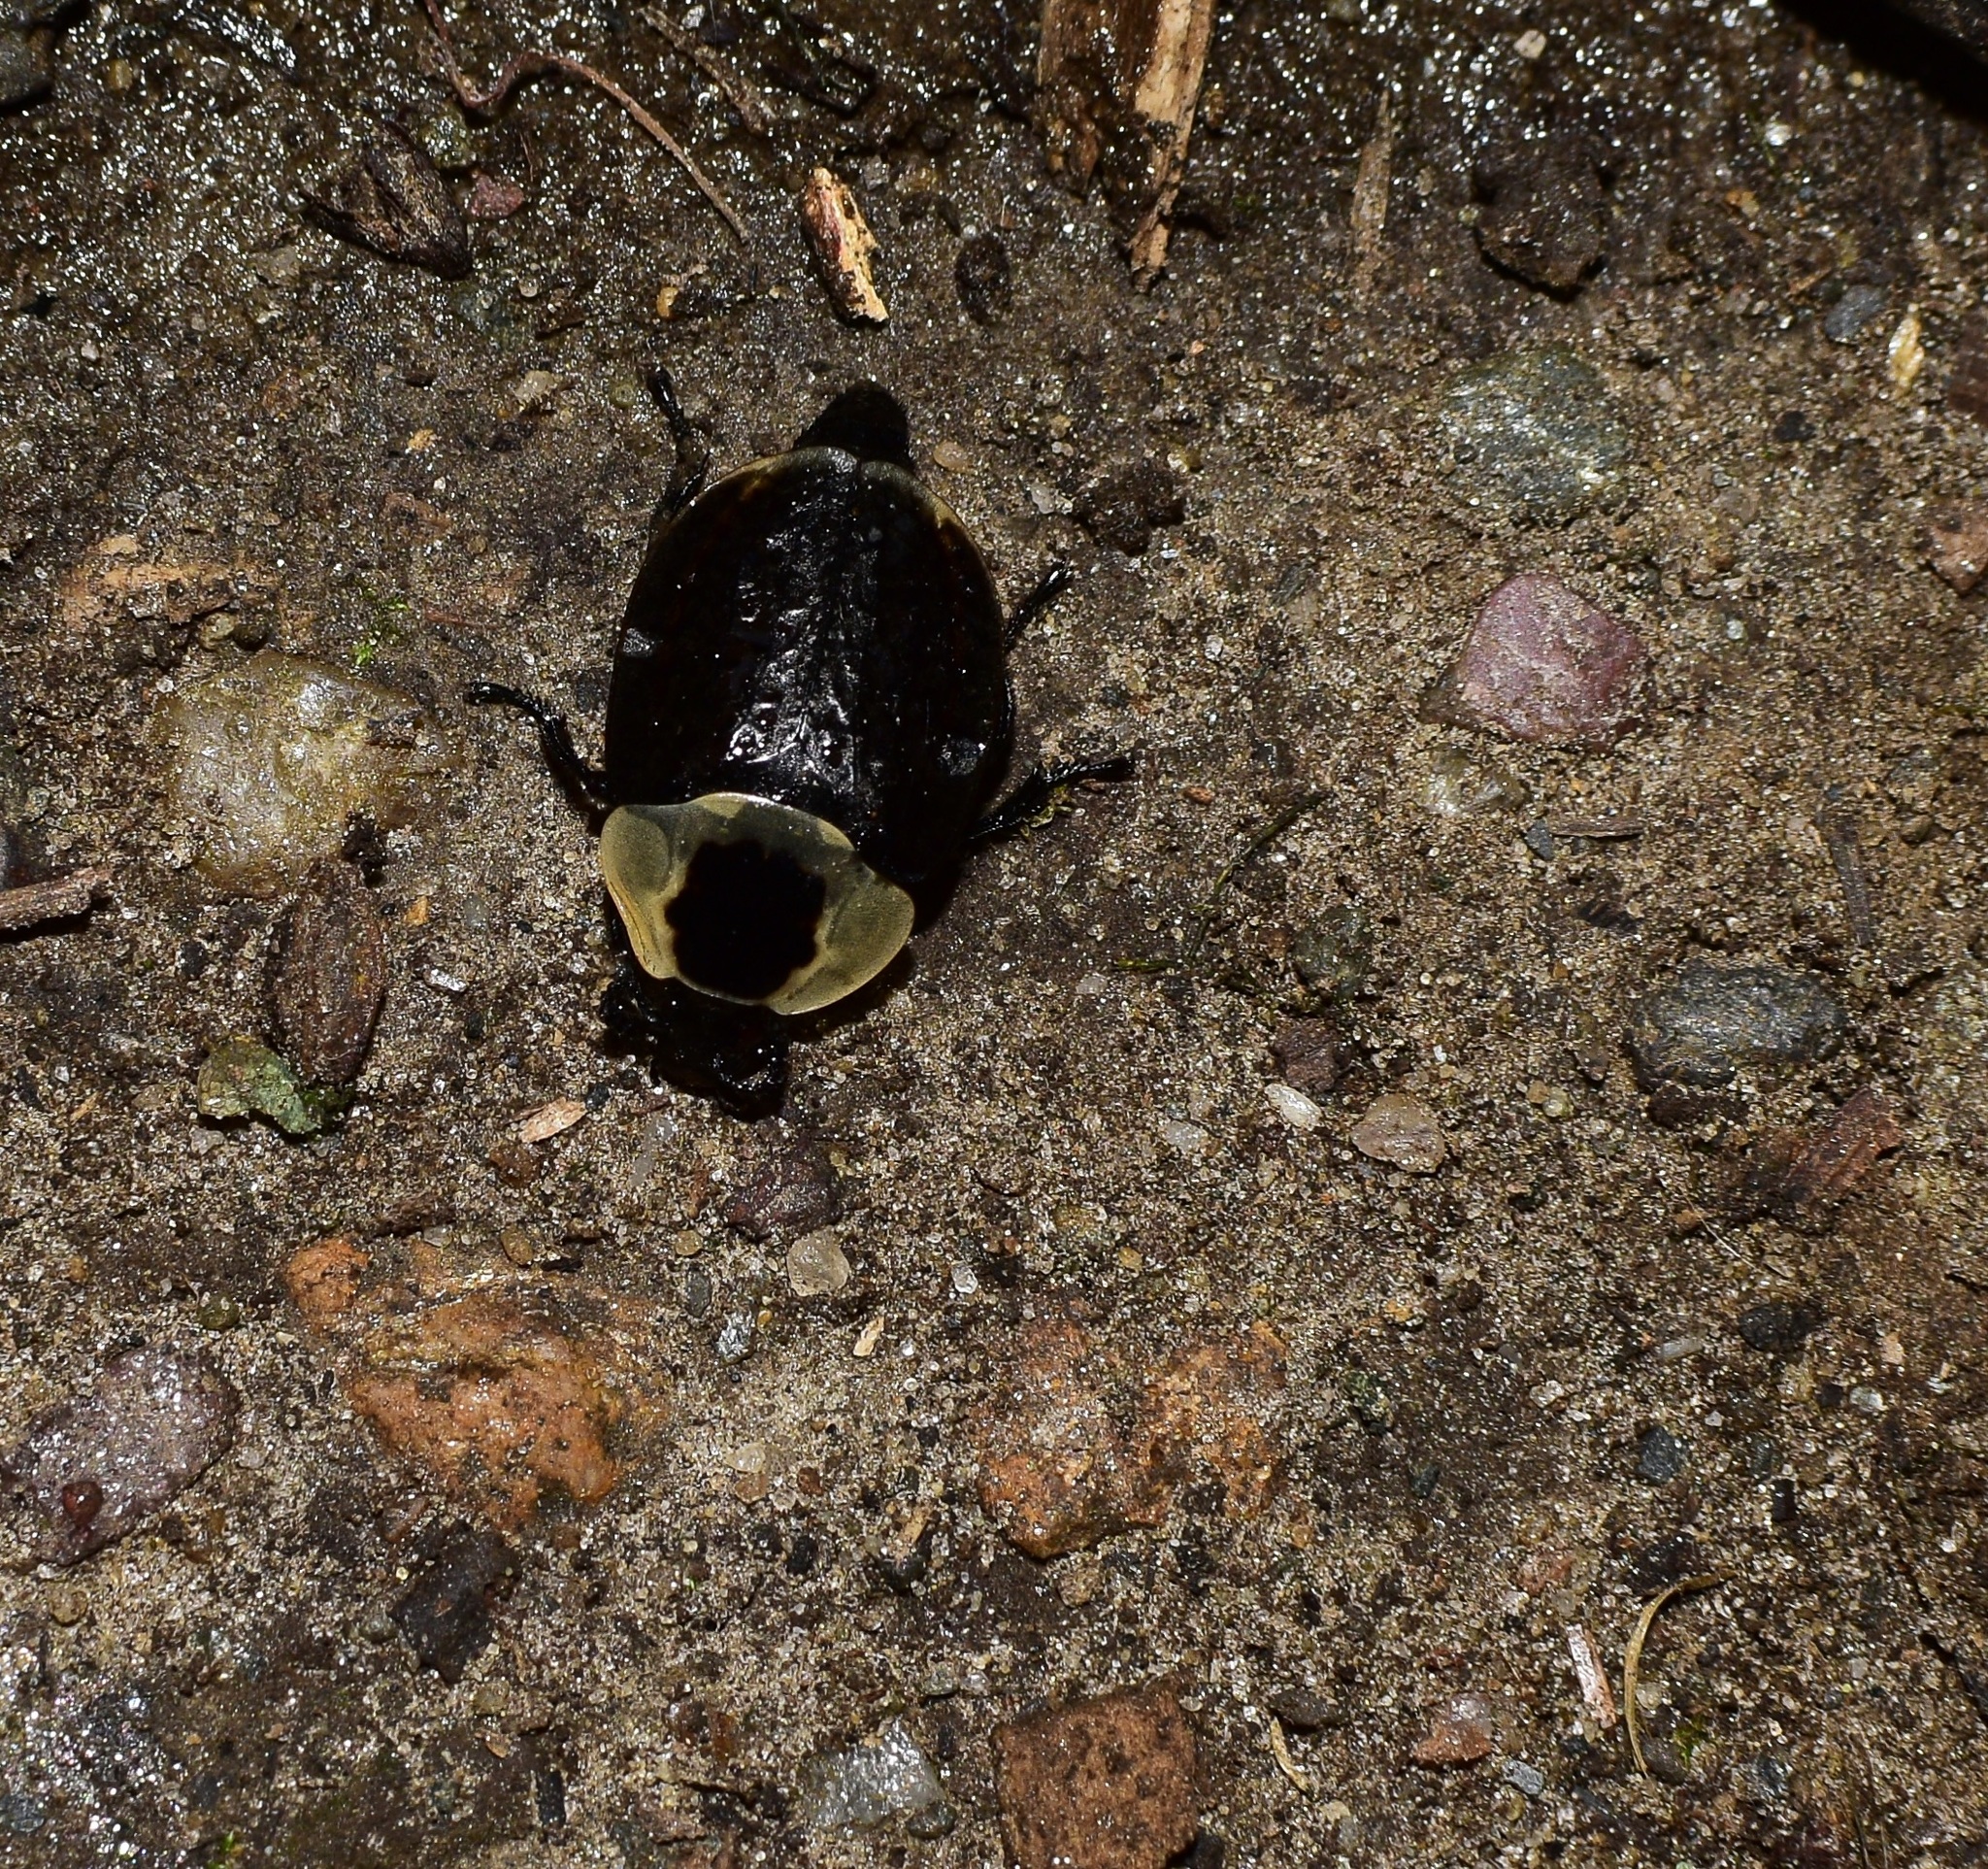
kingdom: Animalia
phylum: Arthropoda
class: Insecta
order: Coleoptera
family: Staphylinidae
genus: Necrophila
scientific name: Necrophila americana
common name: American carrion beetle
